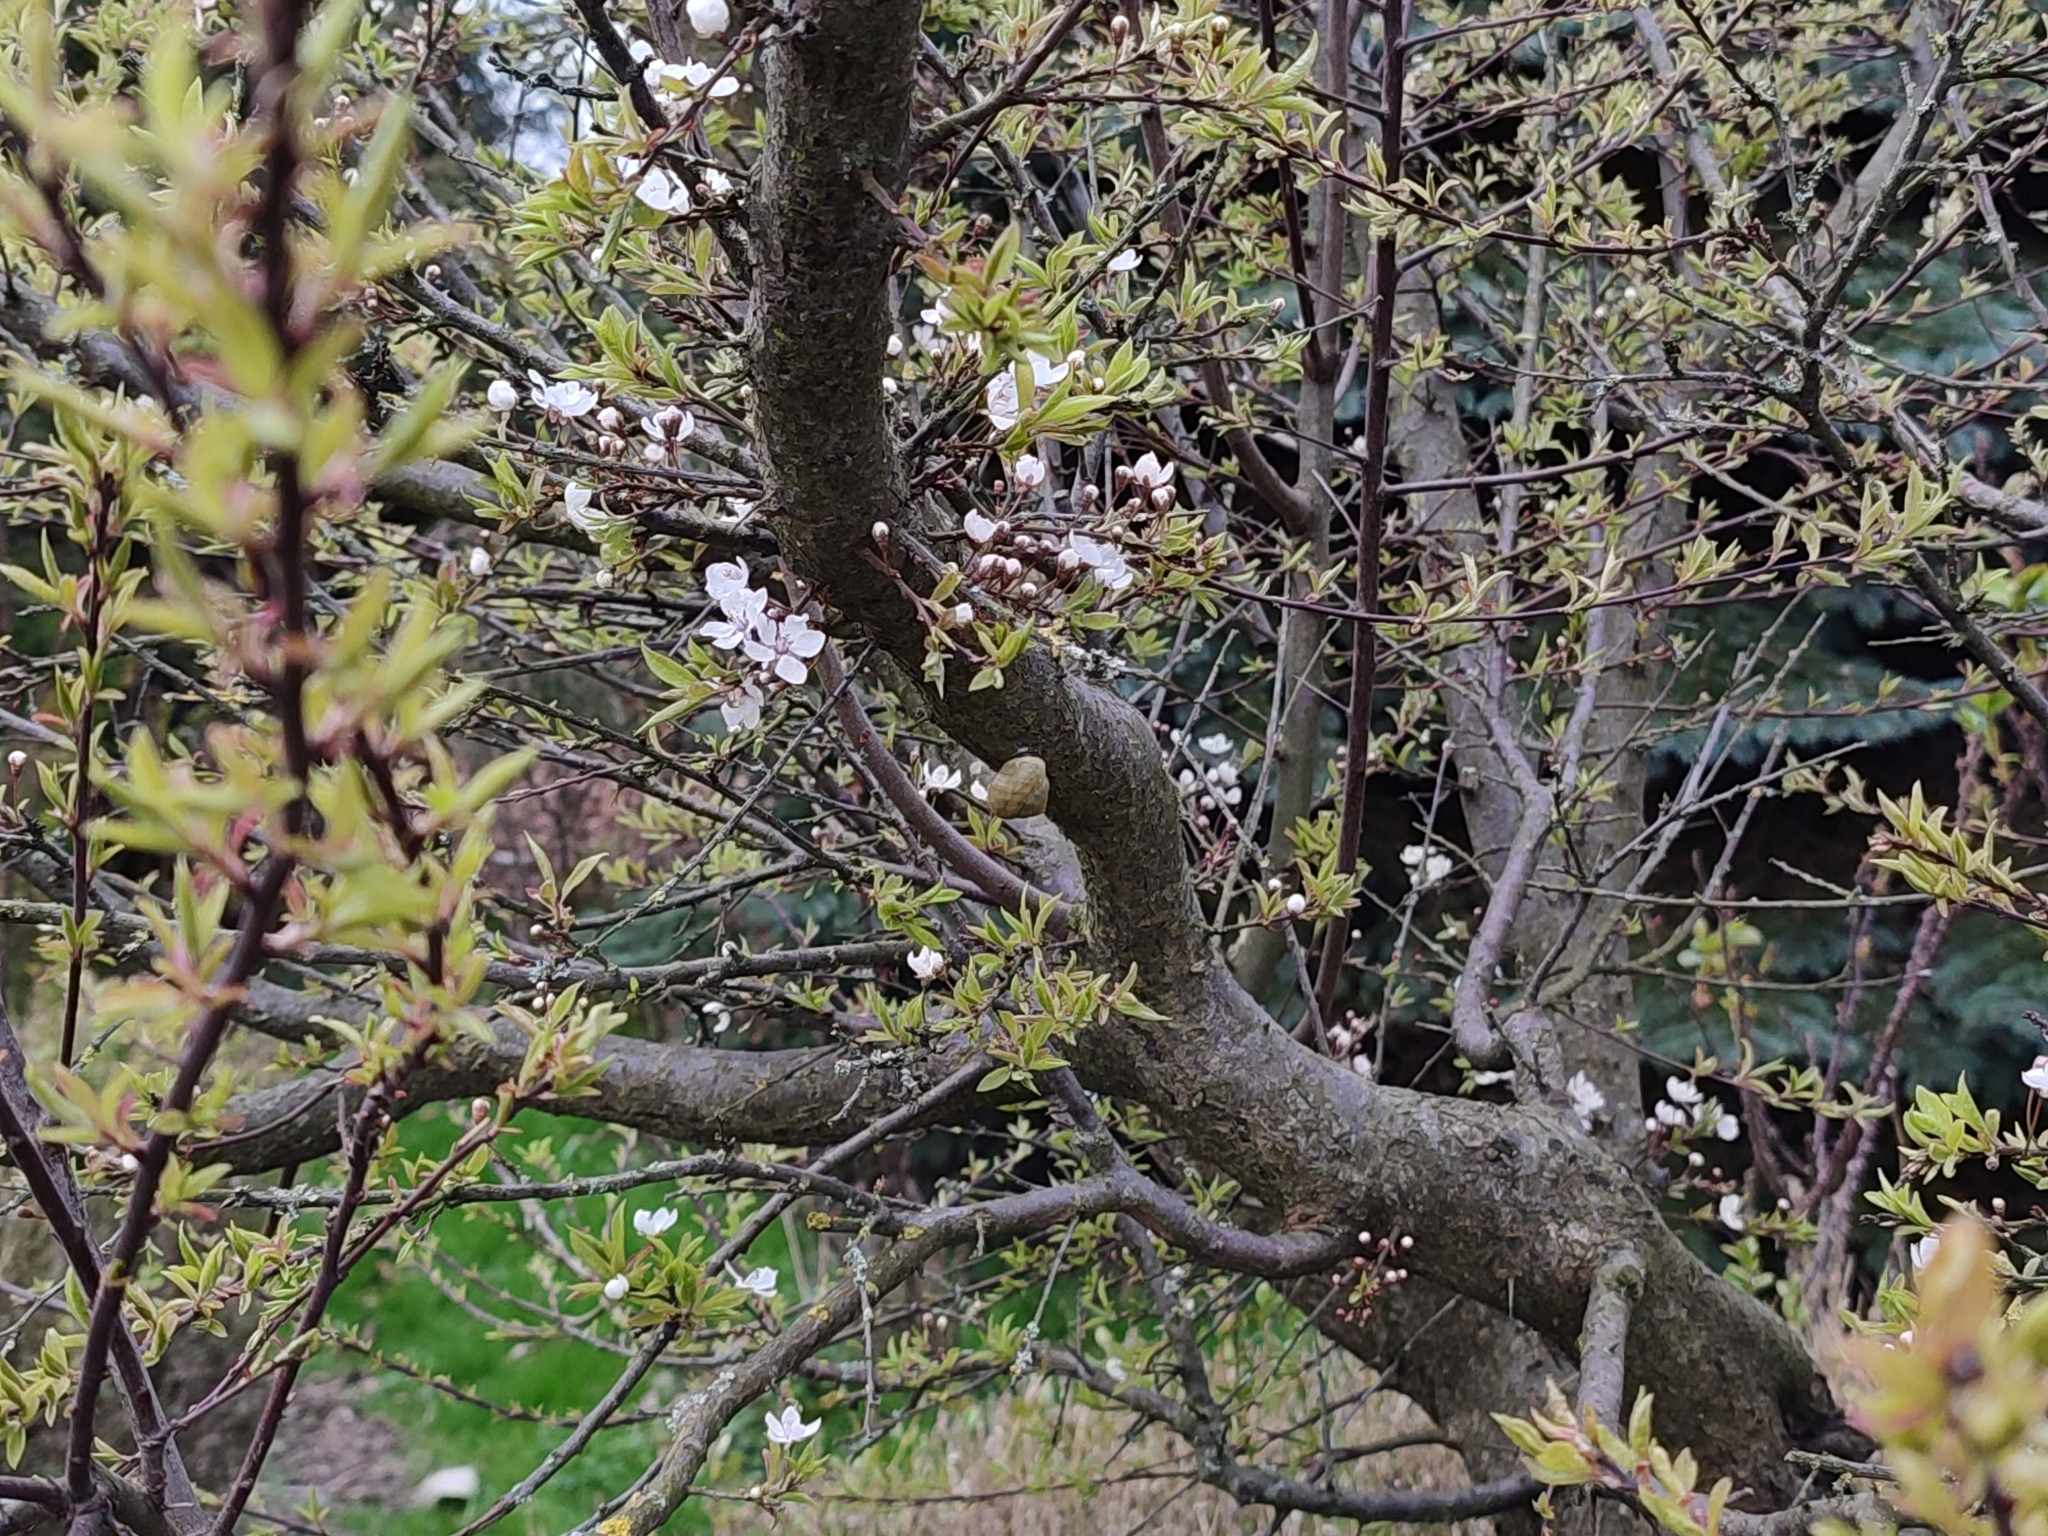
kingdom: Animalia
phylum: Mollusca
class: Gastropoda
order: Stylommatophora
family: Helicidae
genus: Cepaea
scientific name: Cepaea nemoralis
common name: Grovesnail
